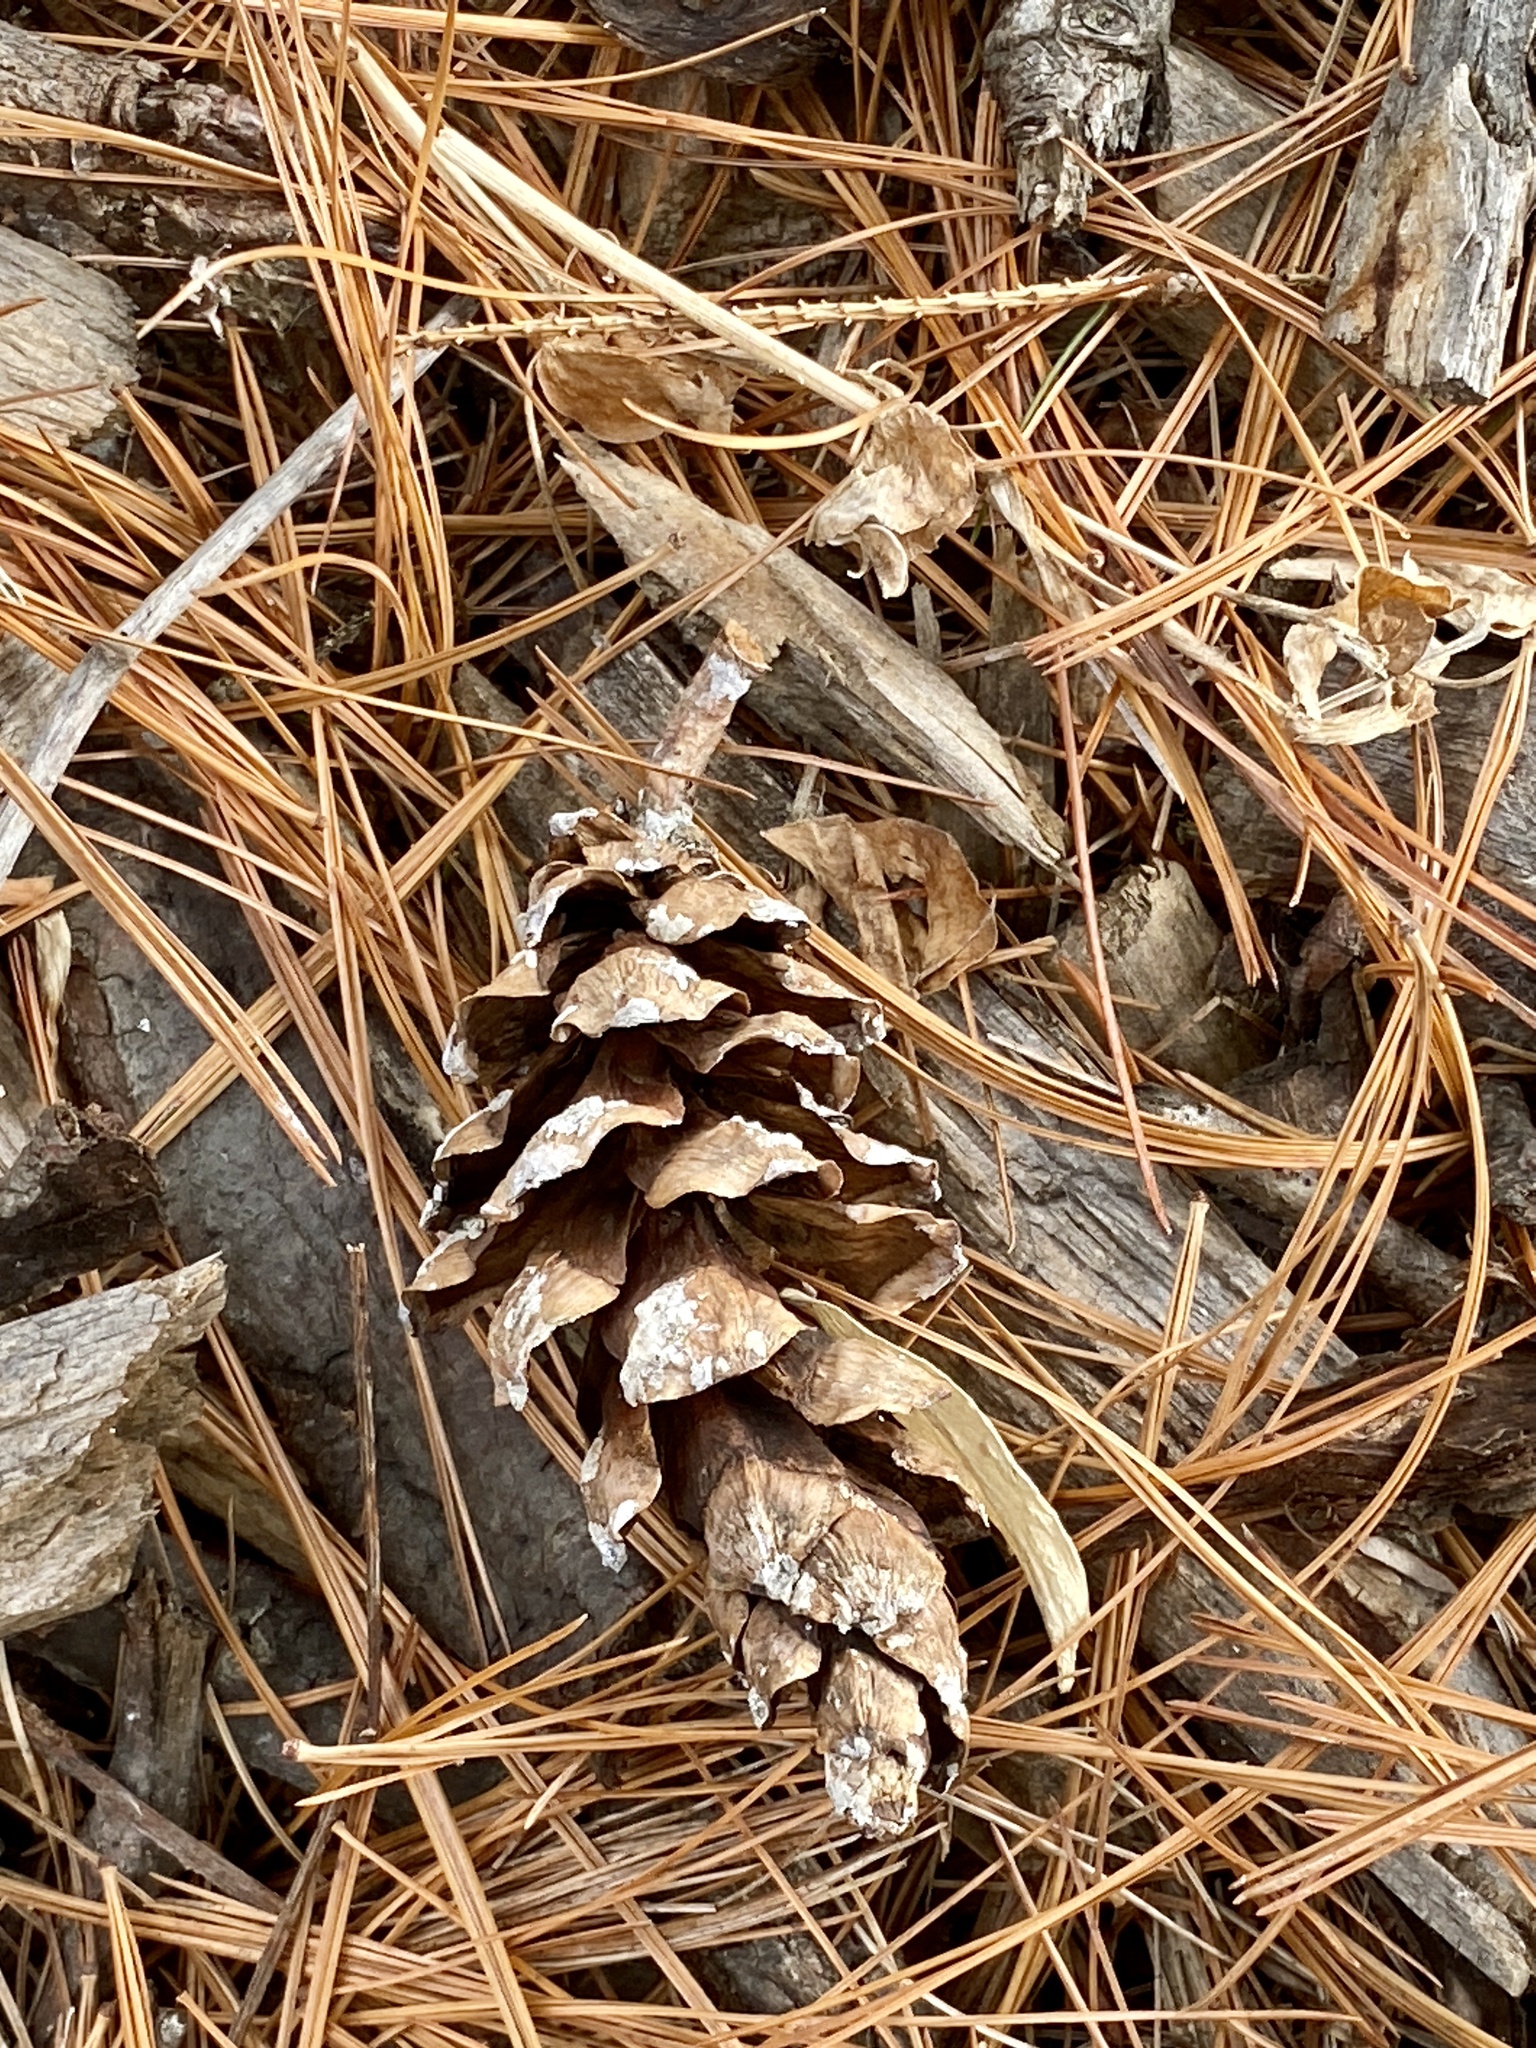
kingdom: Plantae
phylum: Tracheophyta
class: Pinopsida
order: Pinales
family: Pinaceae
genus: Pinus
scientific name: Pinus strobus
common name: Weymouth pine
